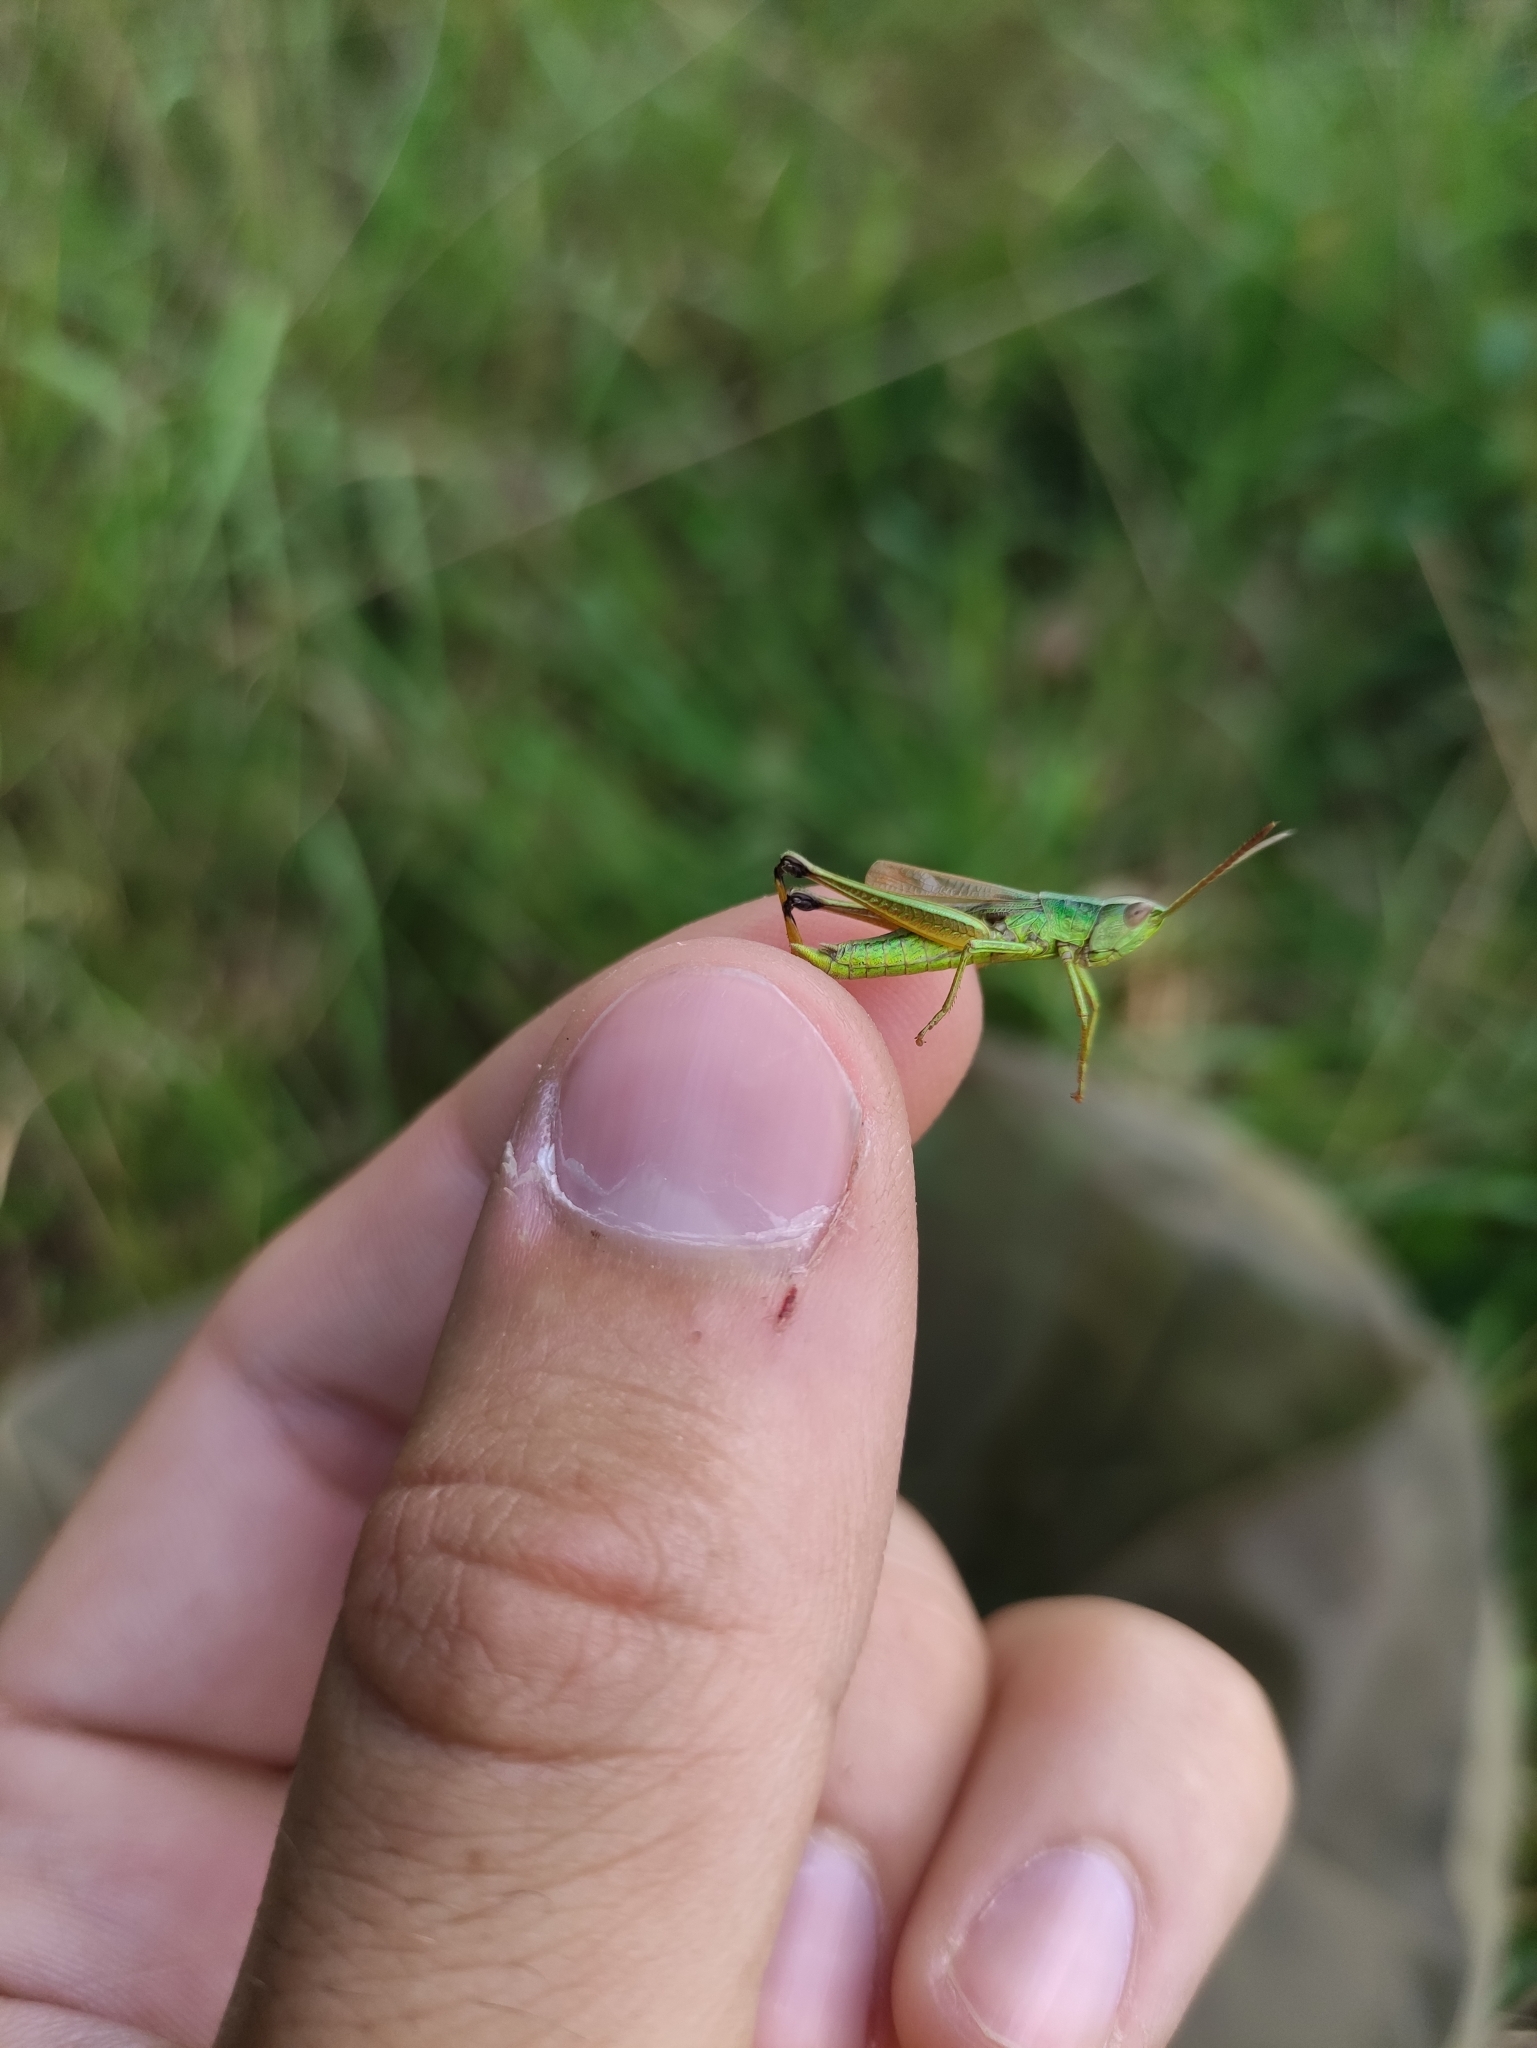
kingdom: Animalia
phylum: Arthropoda
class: Insecta
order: Orthoptera
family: Acrididae
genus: Chrysochraon
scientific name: Chrysochraon dispar
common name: Large gold grasshopper
